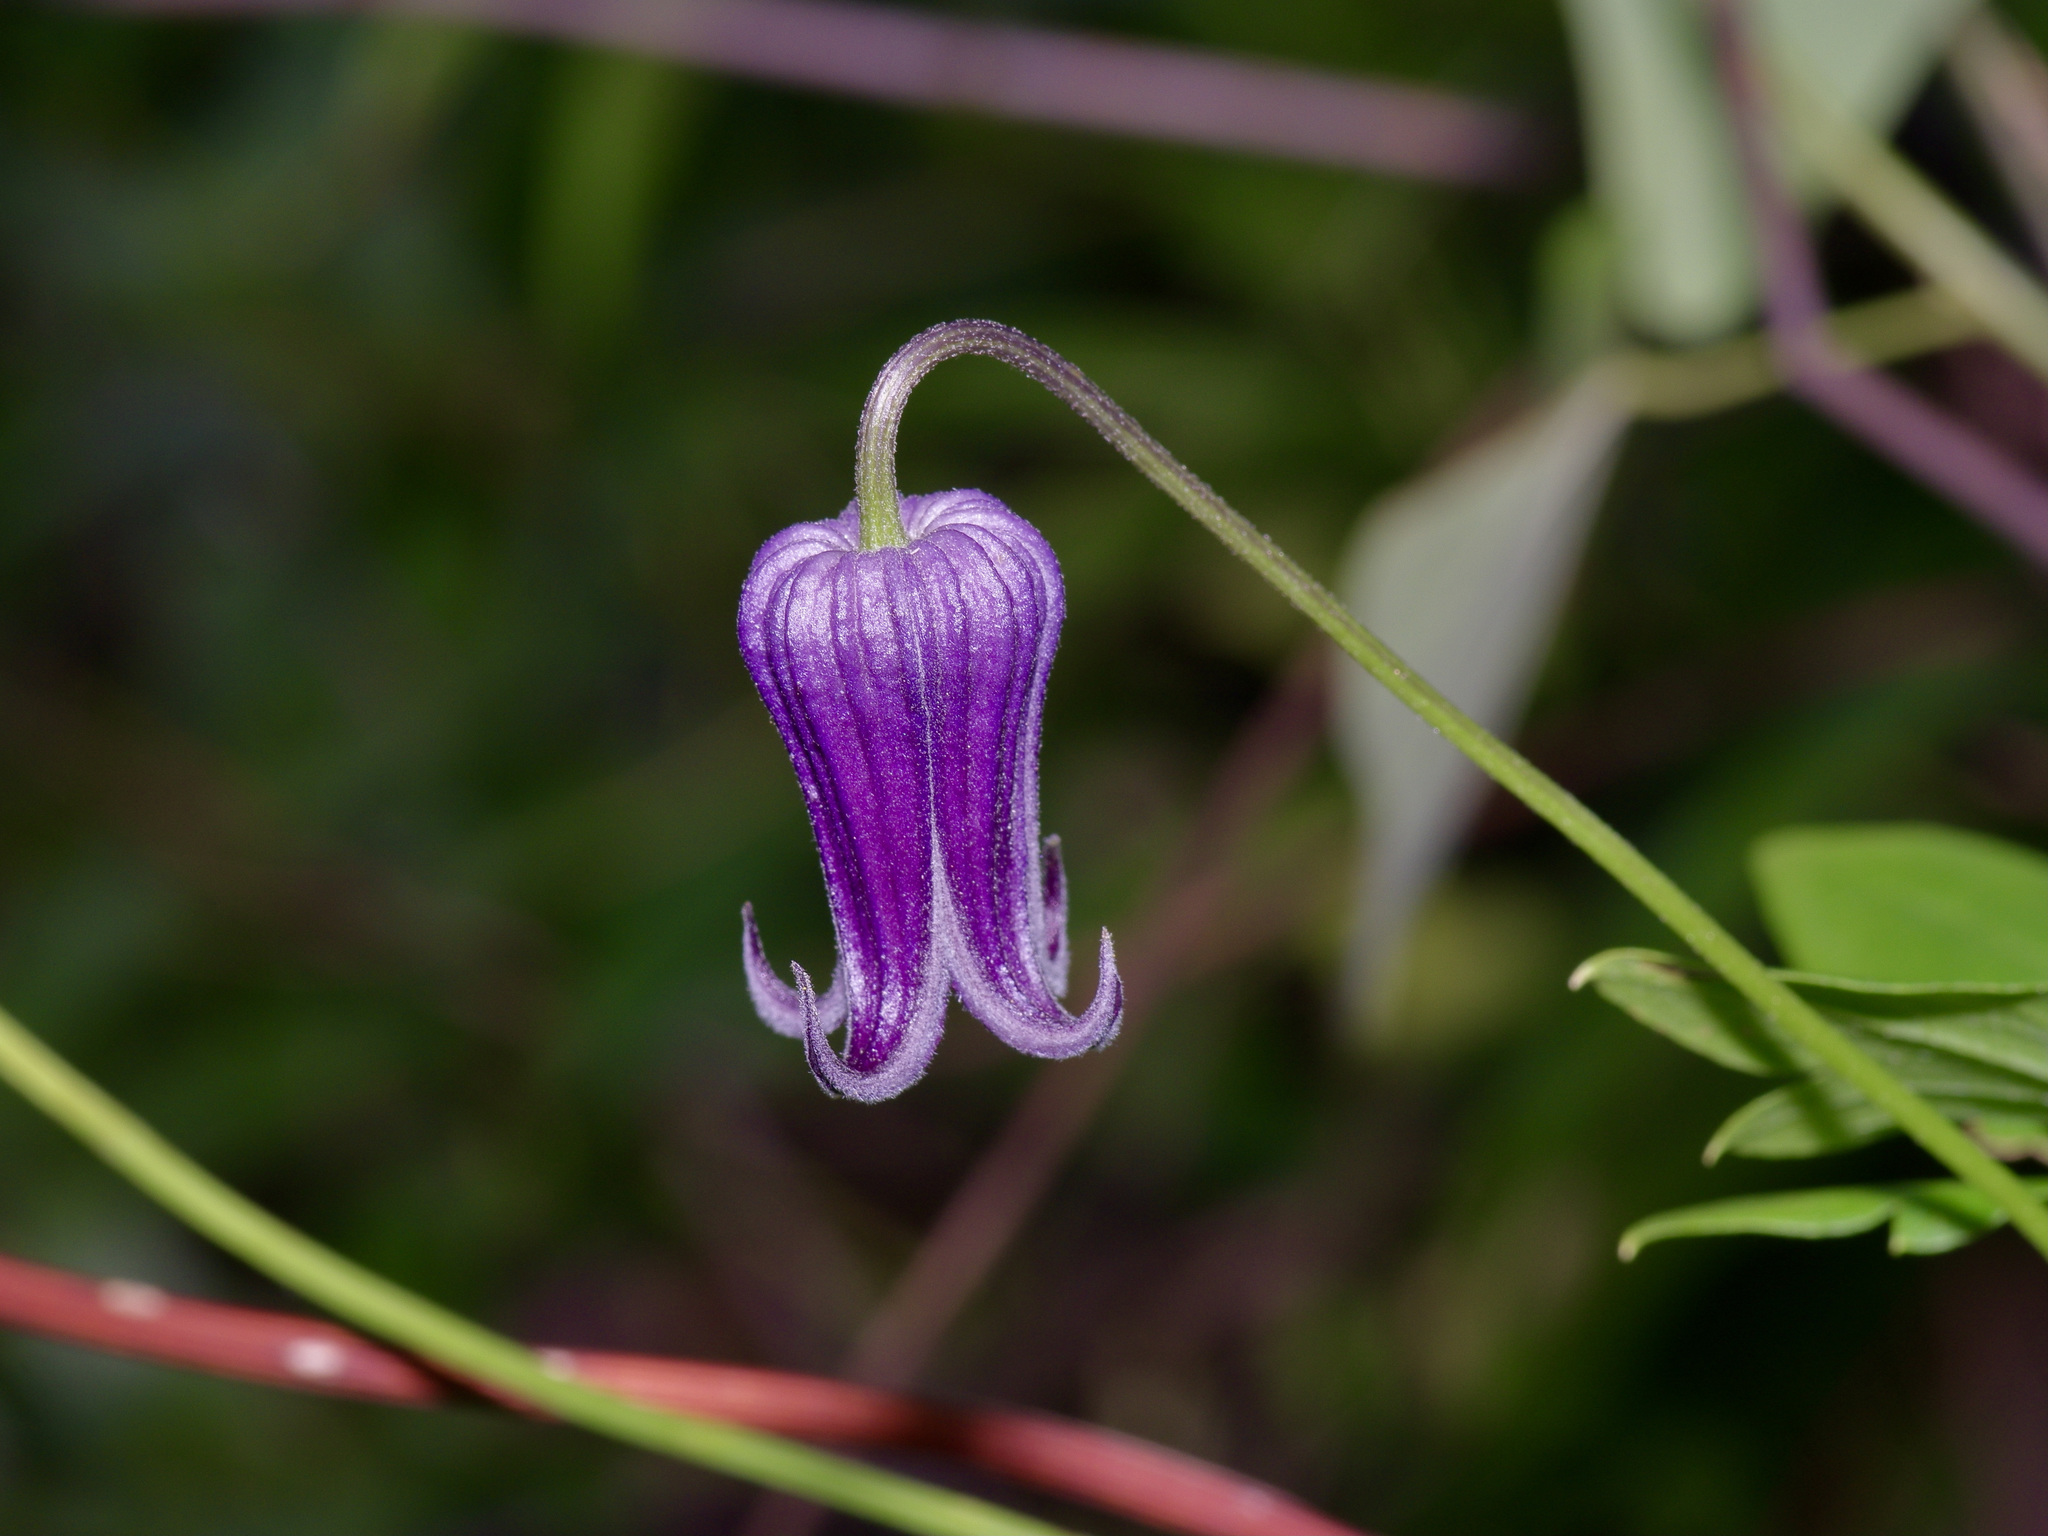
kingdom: Plantae
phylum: Tracheophyta
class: Magnoliopsida
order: Ranunculales
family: Ranunculaceae
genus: Clematis
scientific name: Clematis pitcheri
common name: Bellflower clematis
